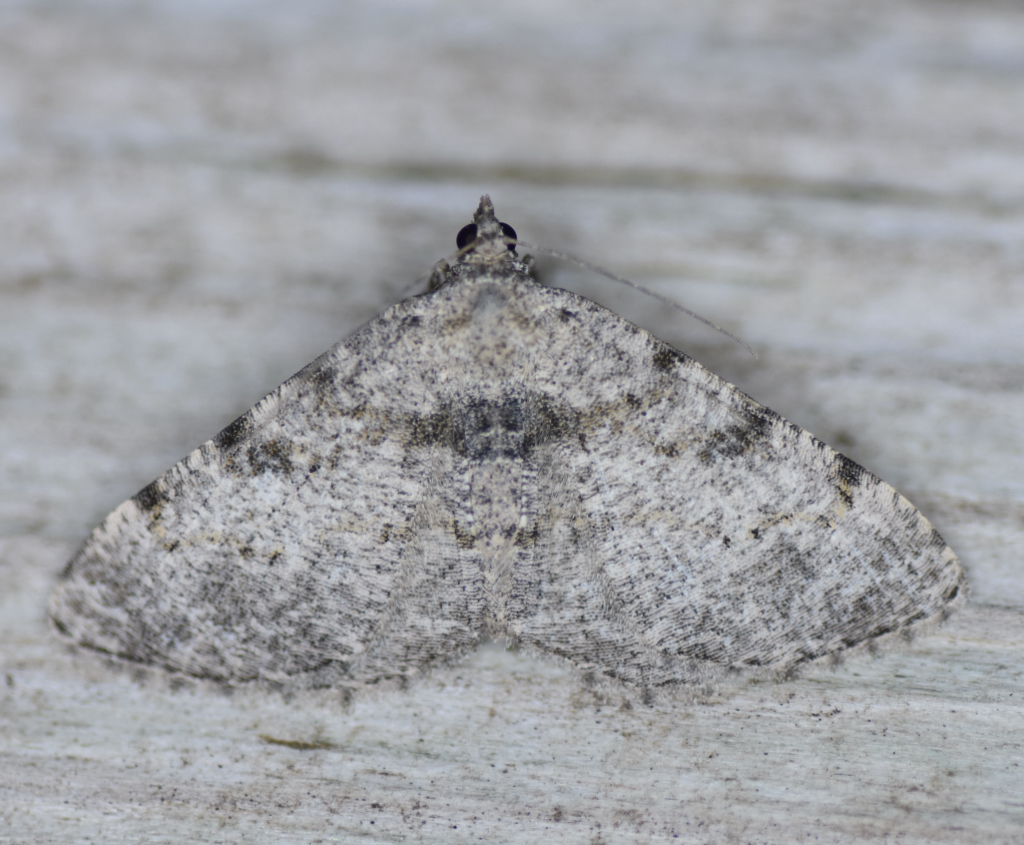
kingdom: Animalia
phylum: Arthropoda
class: Insecta
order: Lepidoptera
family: Geometridae
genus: Digrammia
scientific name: Digrammia gnophosaria
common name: Hollow-spotted angle
